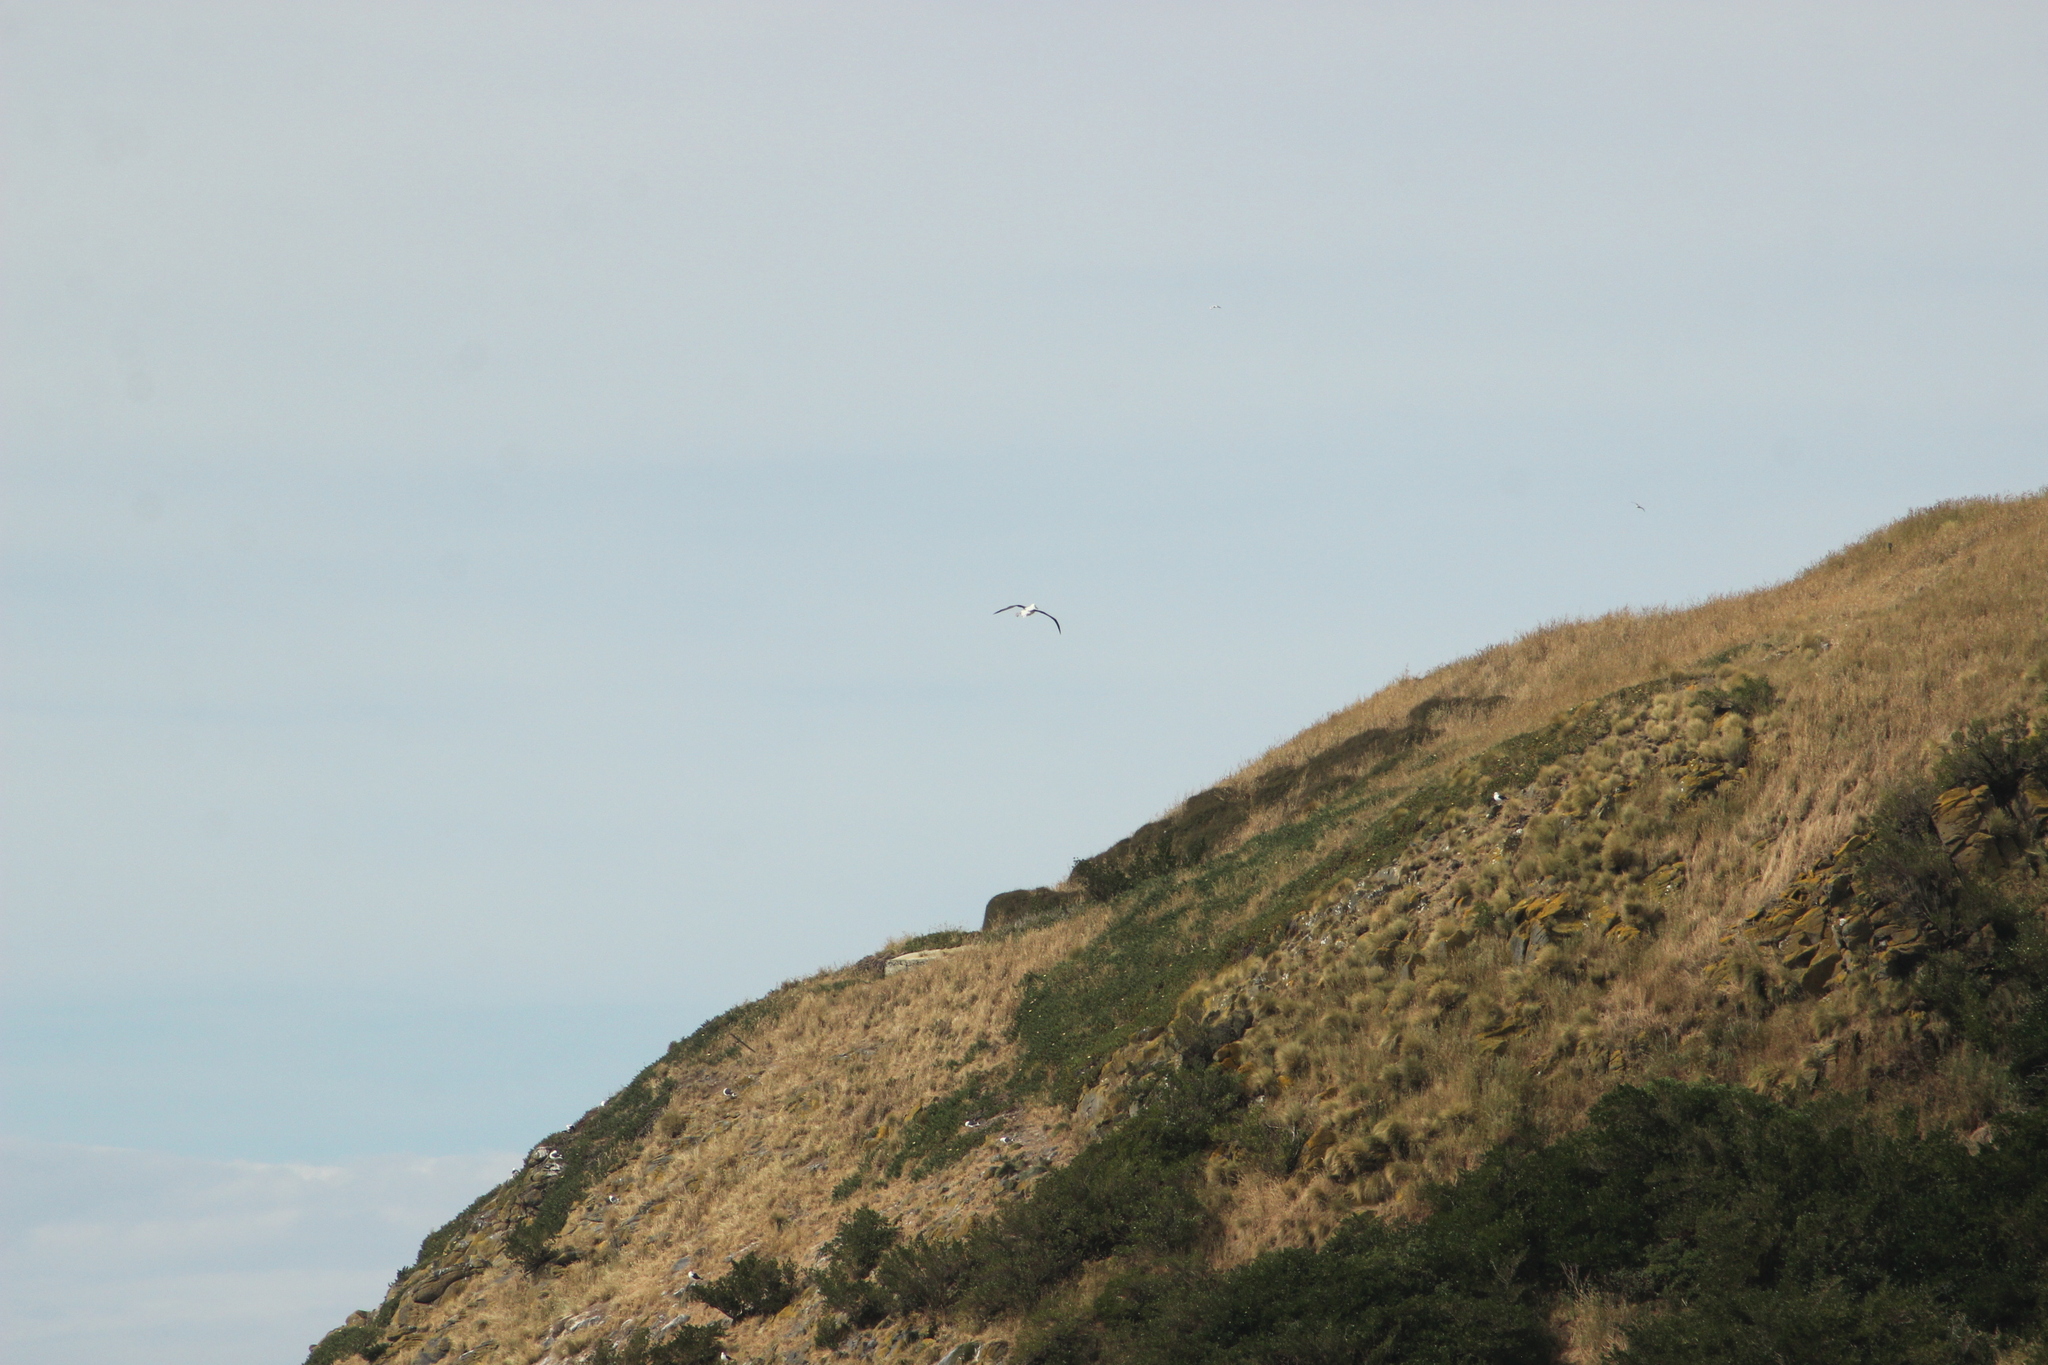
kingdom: Animalia
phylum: Chordata
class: Aves
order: Procellariiformes
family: Diomedeidae
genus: Diomedea
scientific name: Diomedea sanfordi
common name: Northern royal albatross
